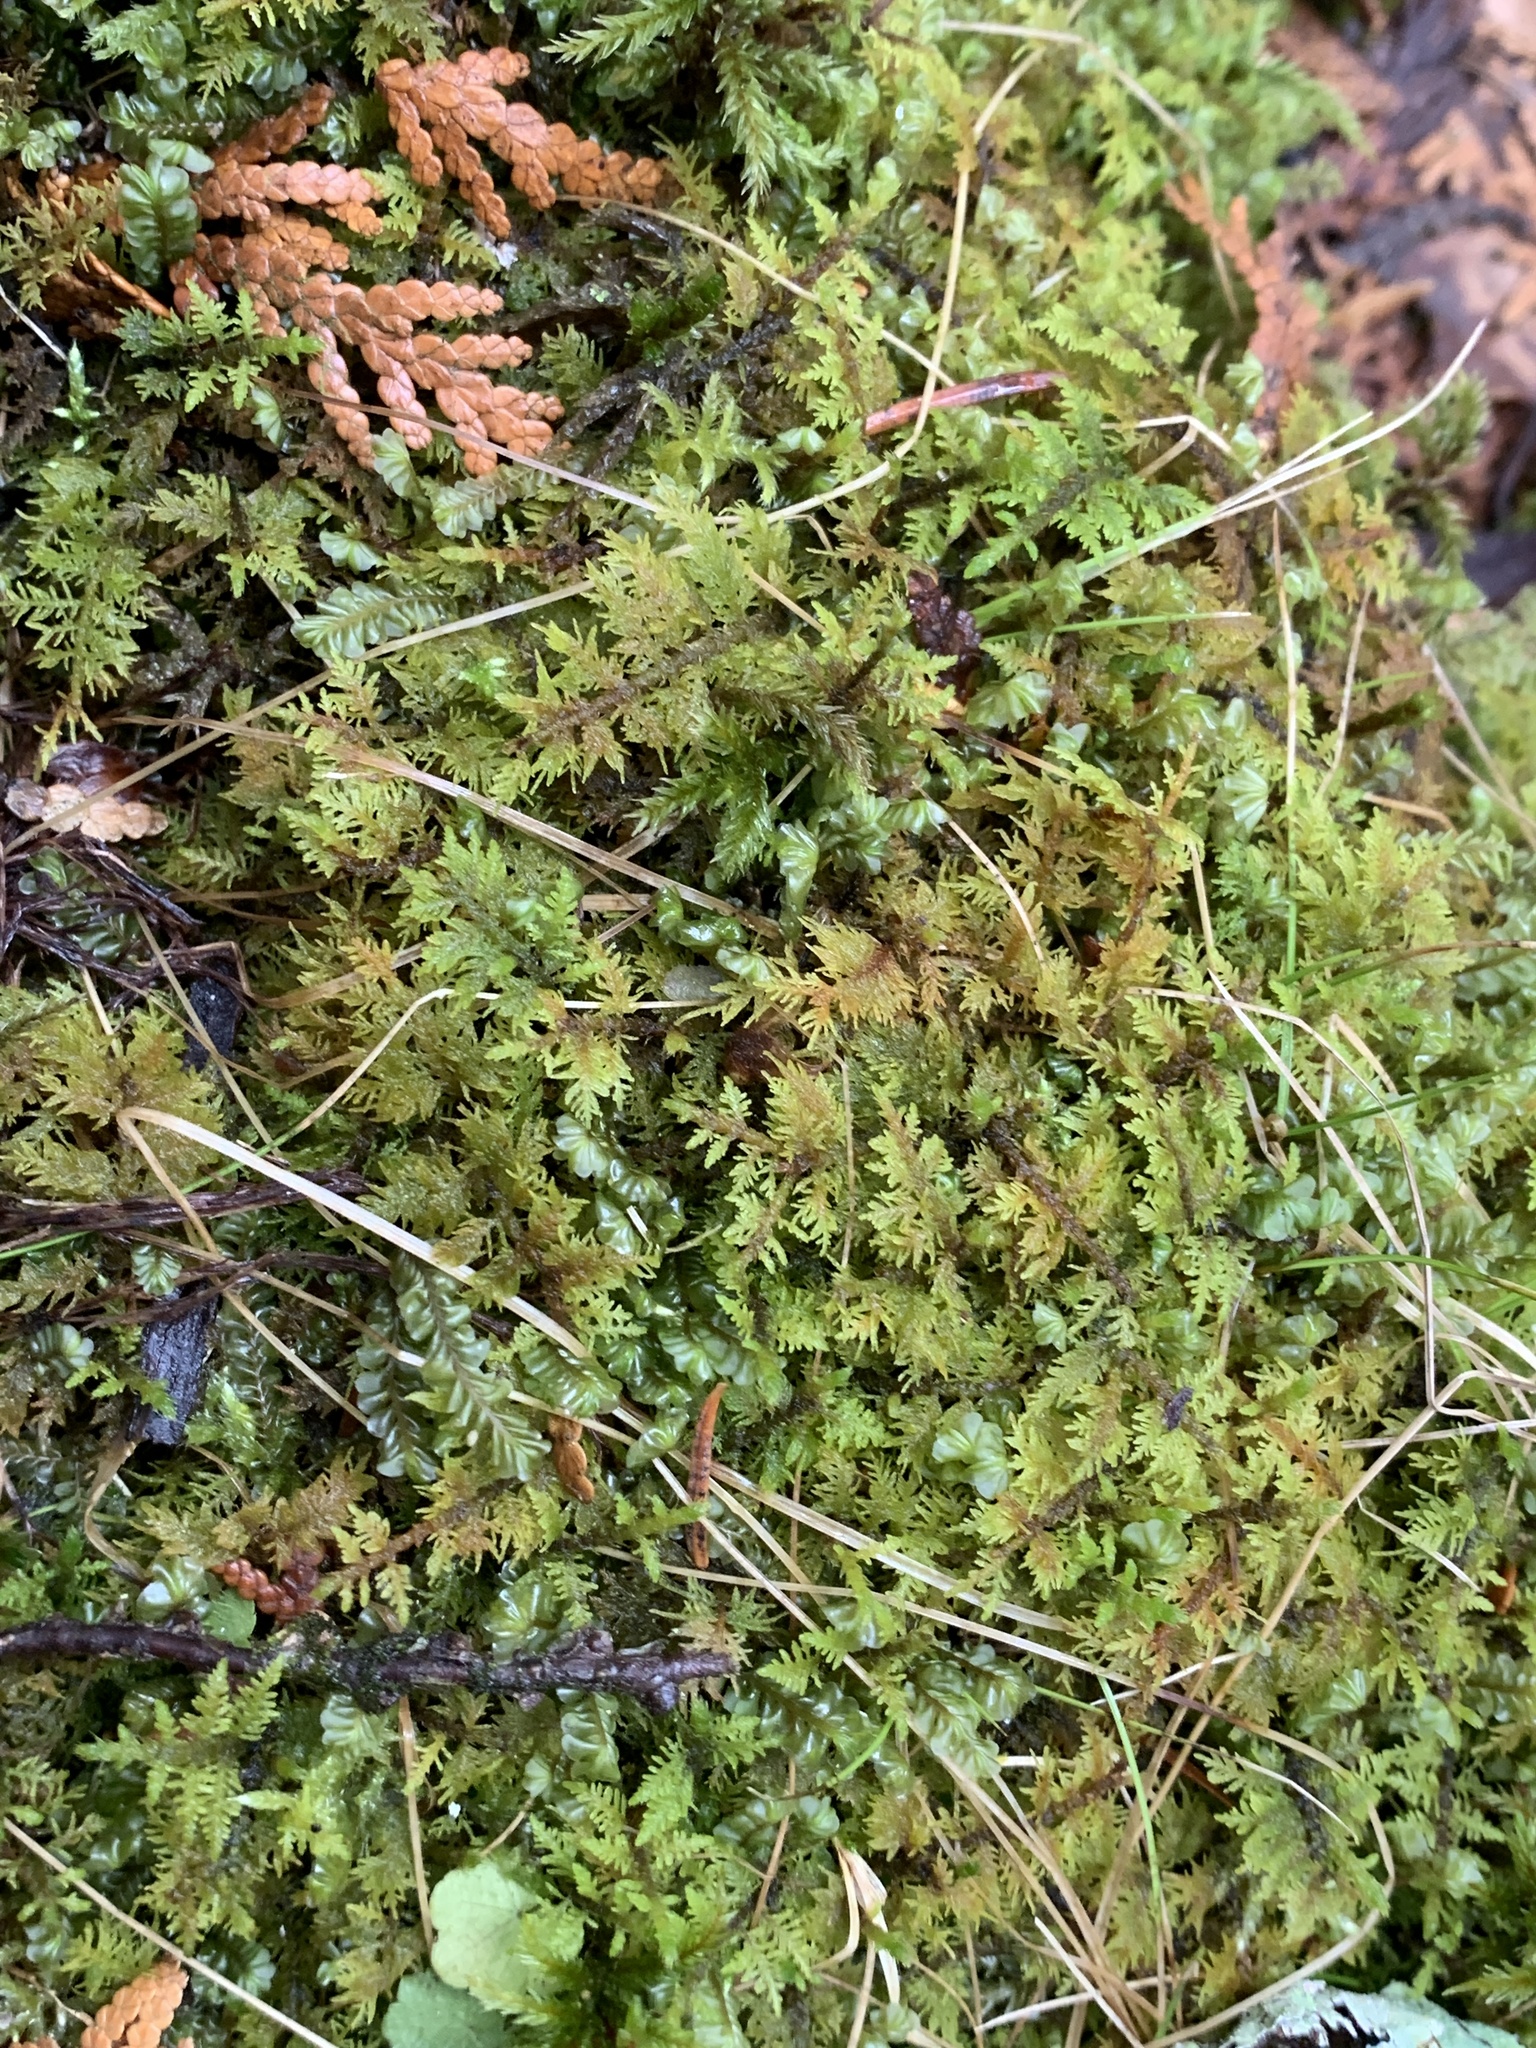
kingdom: Plantae
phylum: Bryophyta
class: Bryopsida
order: Hypnales
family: Hylocomiaceae
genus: Hylocomium
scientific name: Hylocomium splendens
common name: Stairstep moss
